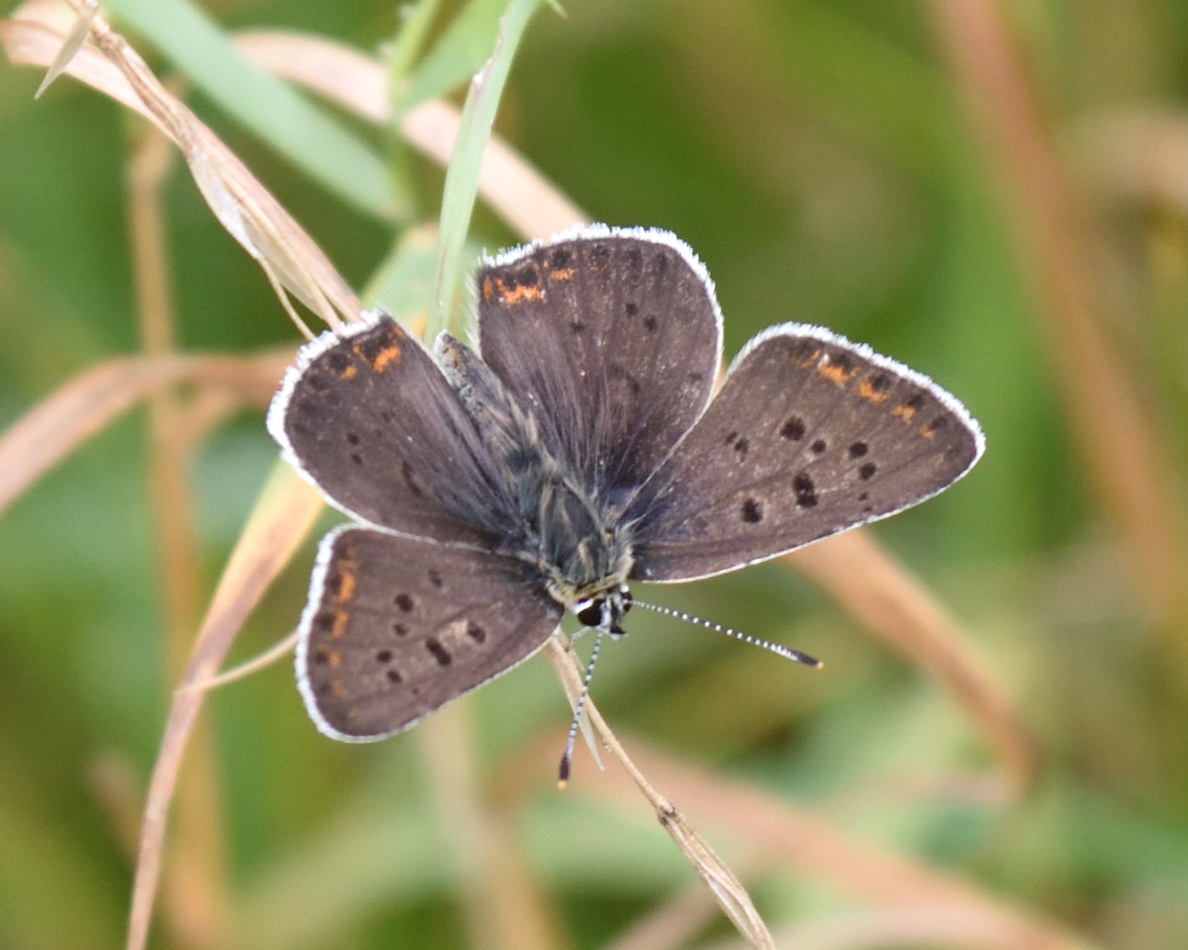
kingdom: Animalia
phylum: Arthropoda
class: Insecta
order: Lepidoptera
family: Lycaenidae
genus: Loweia
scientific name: Loweia tityrus
